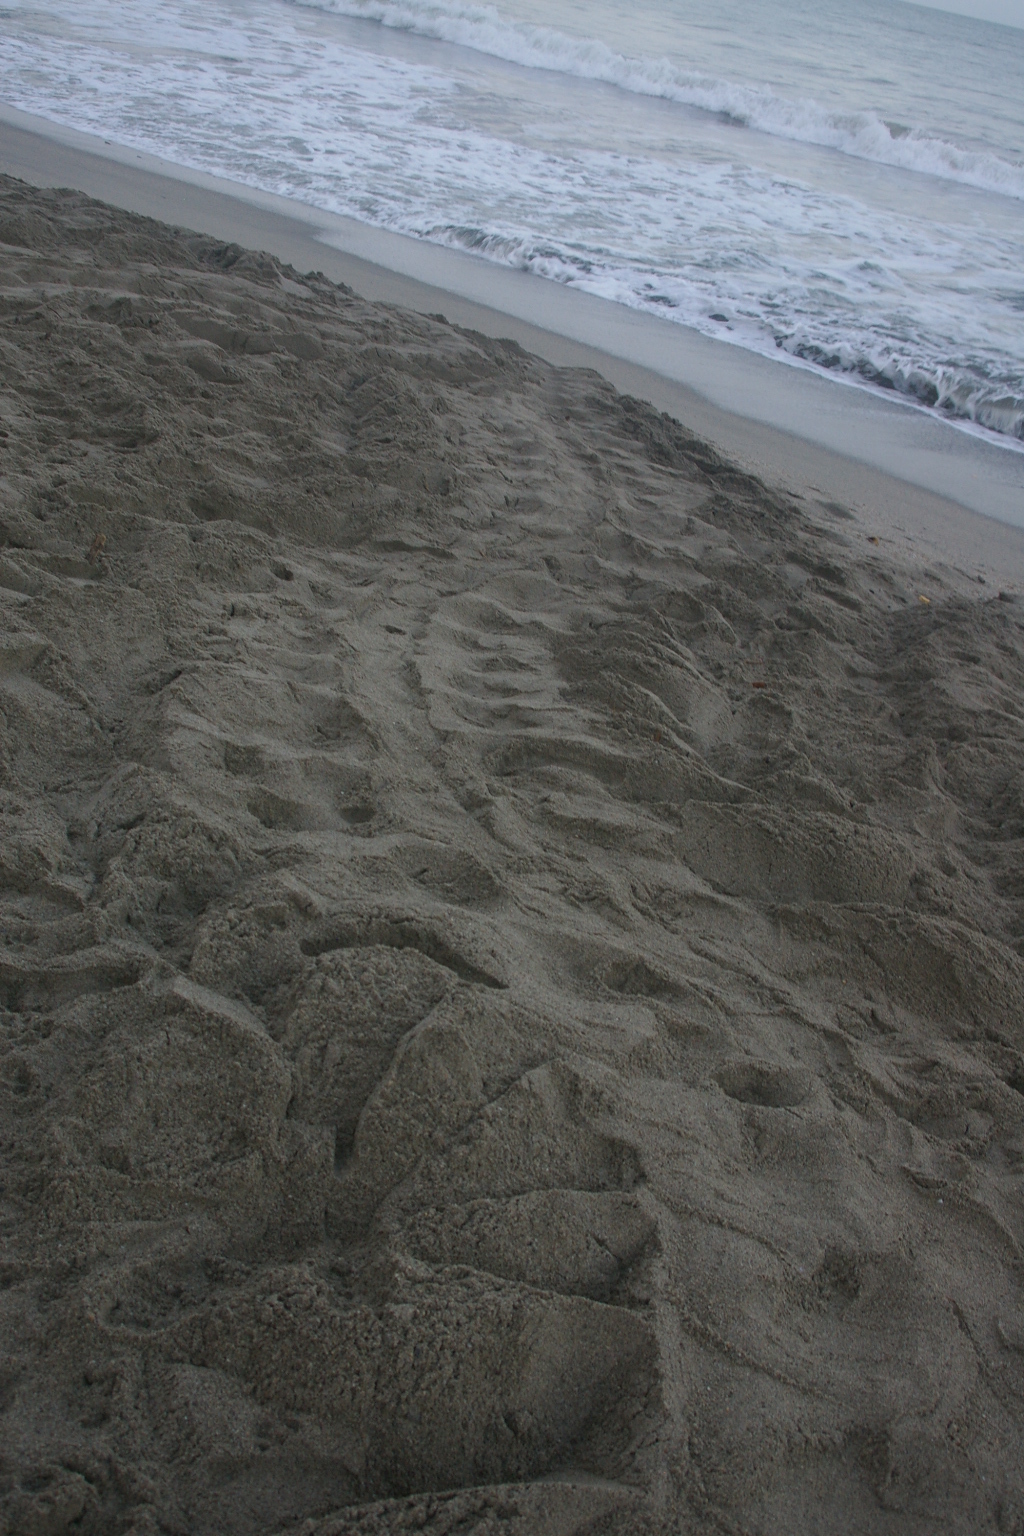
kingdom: Animalia
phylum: Chordata
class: Testudines
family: Dermochelyidae
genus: Dermochelys
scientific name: Dermochelys coriacea
